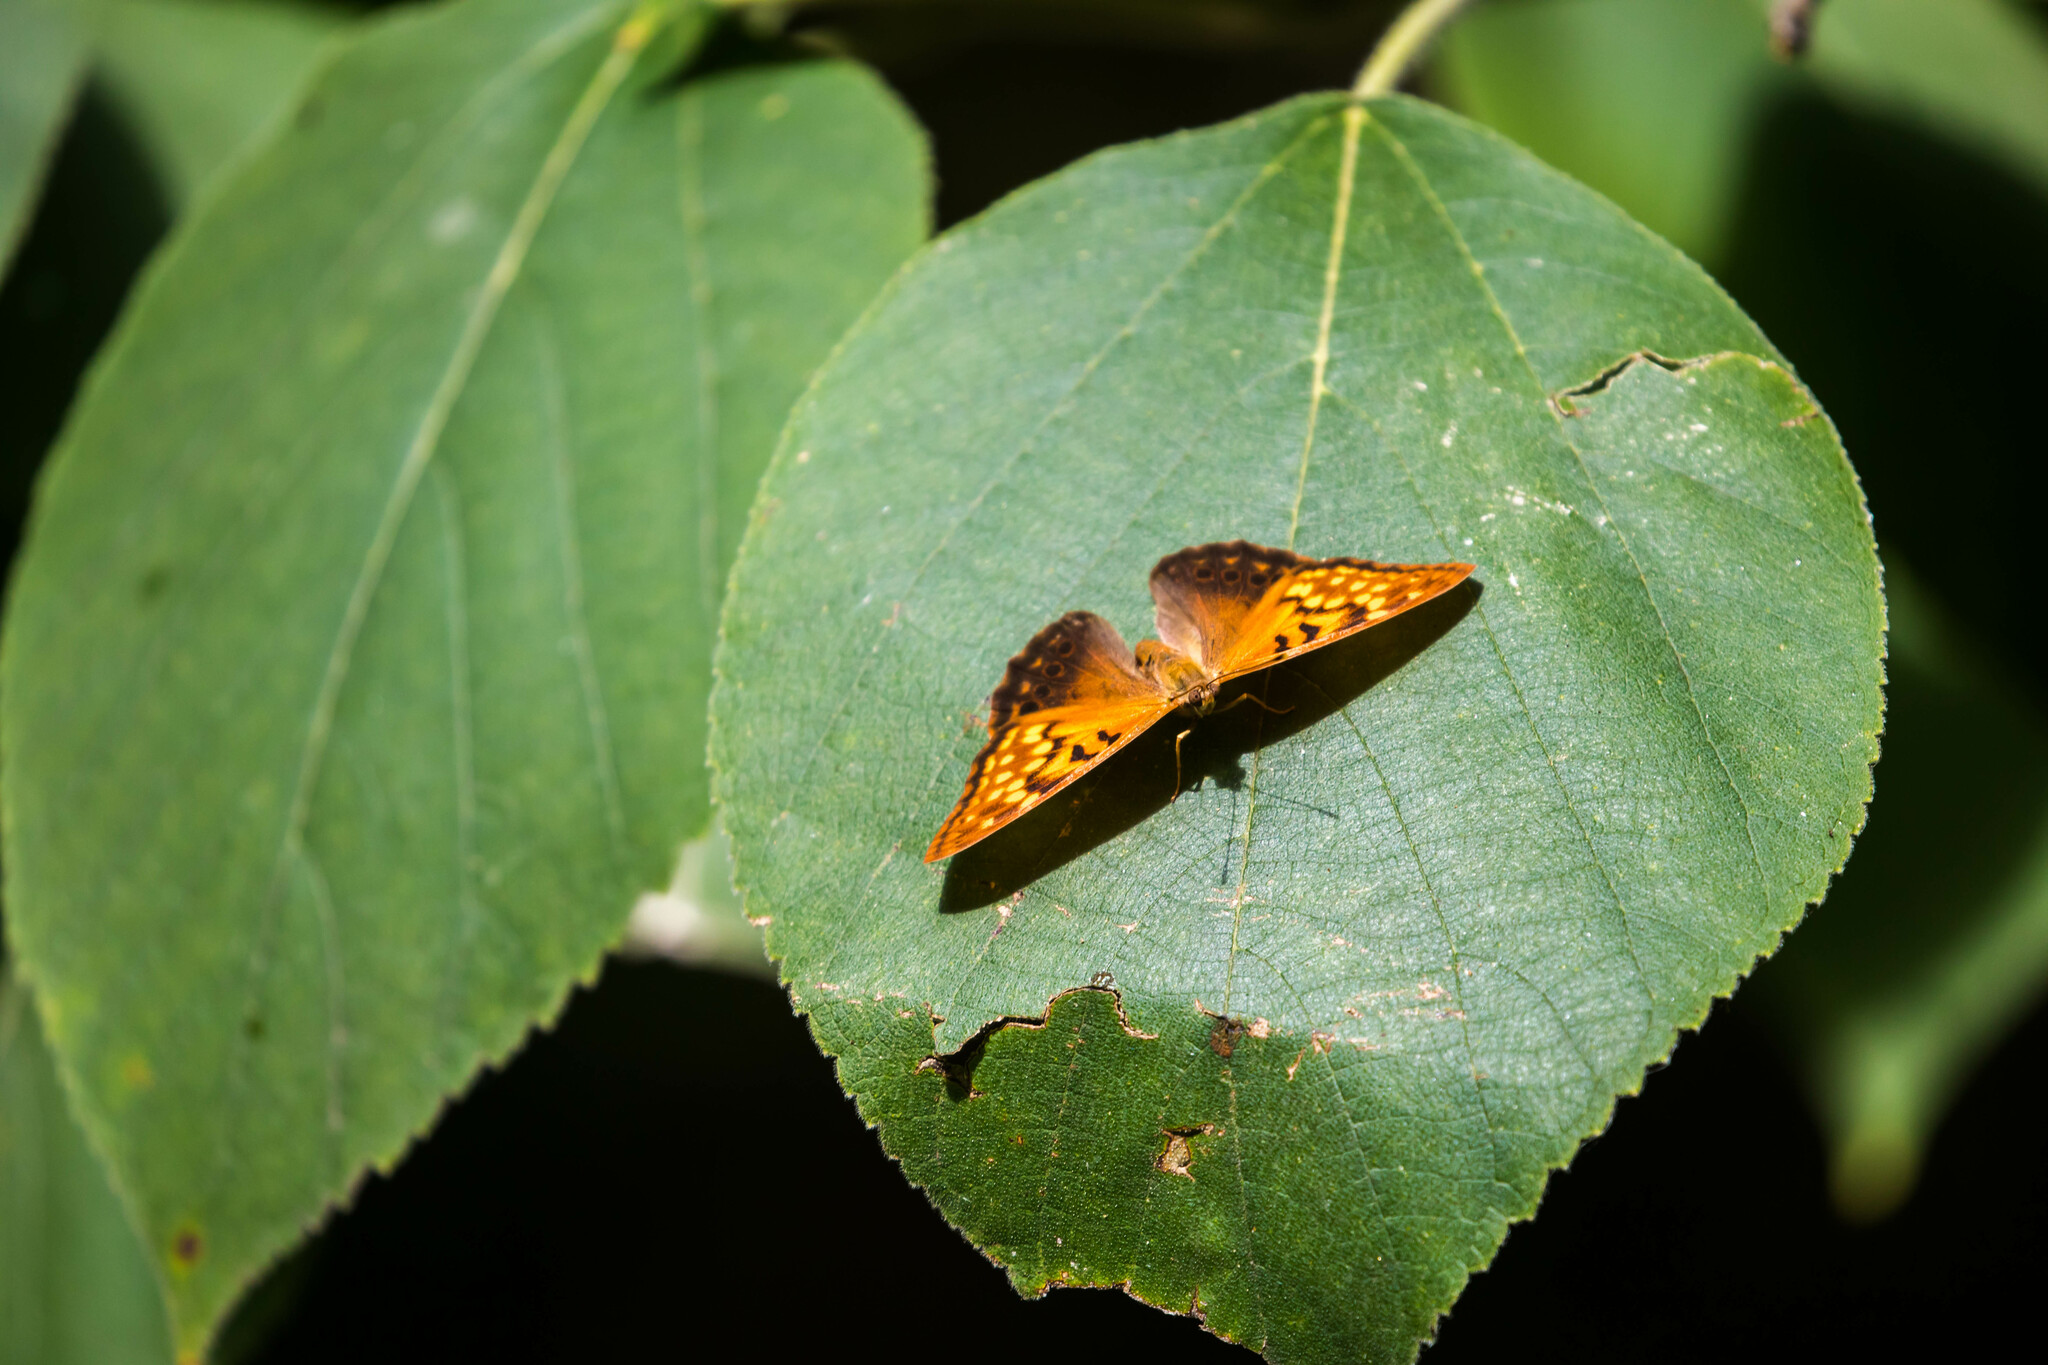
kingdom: Animalia
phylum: Arthropoda
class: Insecta
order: Lepidoptera
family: Nymphalidae
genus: Asterocampa
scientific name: Asterocampa clyton
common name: Tawny emperor
